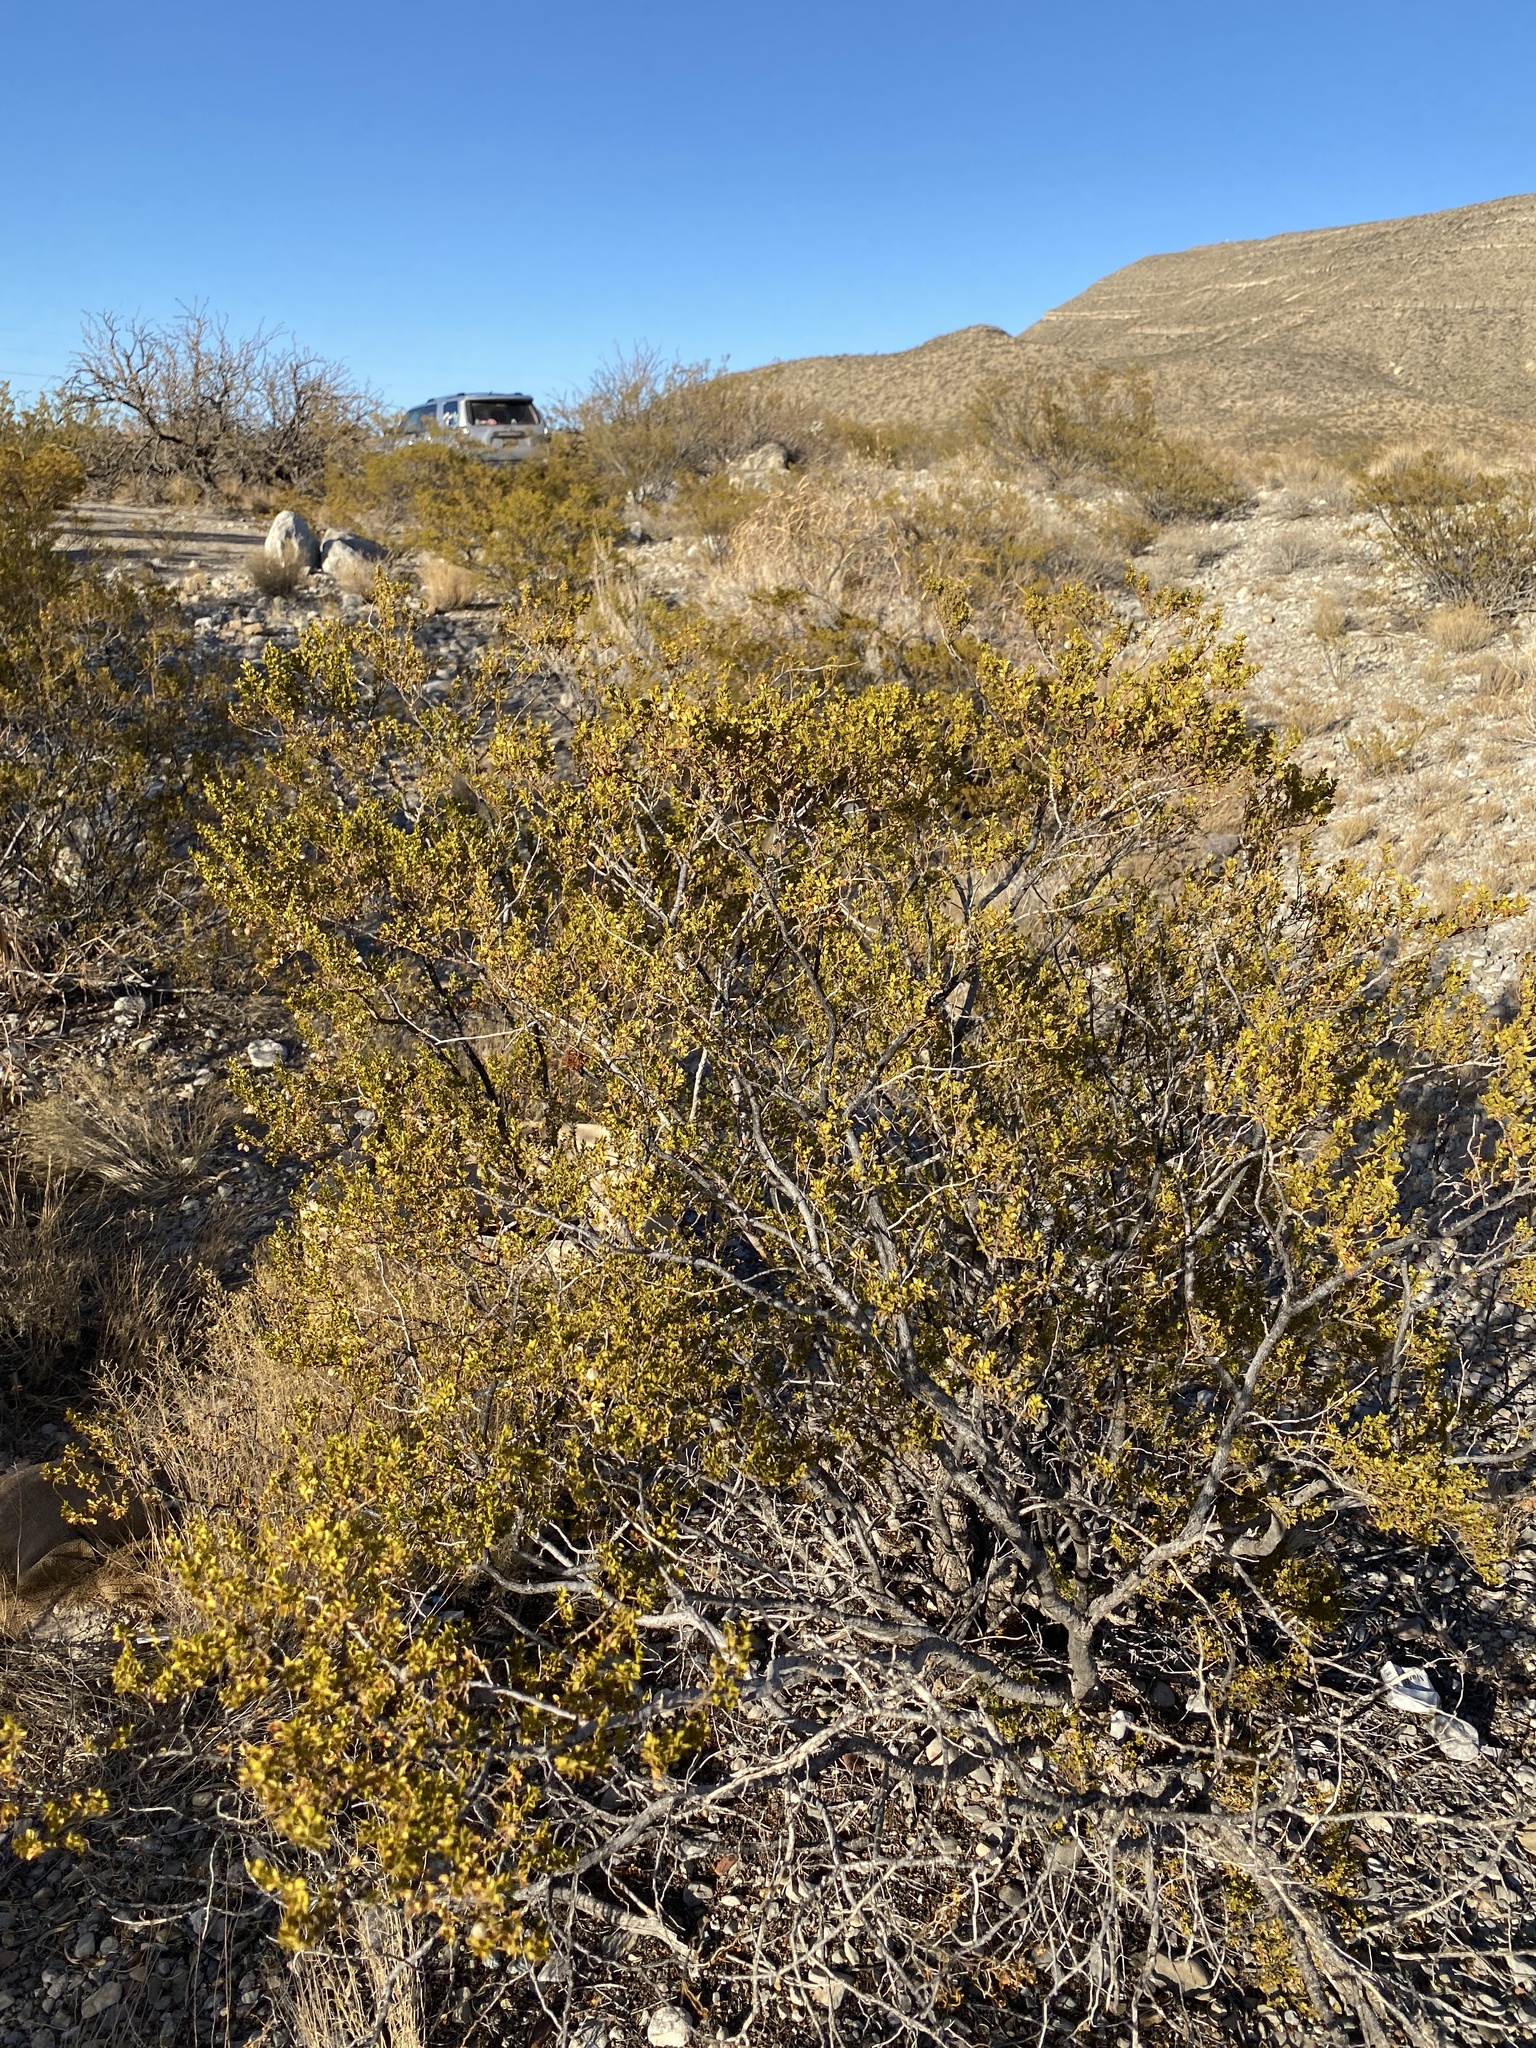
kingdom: Plantae
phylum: Tracheophyta
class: Magnoliopsida
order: Zygophyllales
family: Zygophyllaceae
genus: Larrea
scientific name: Larrea tridentata
